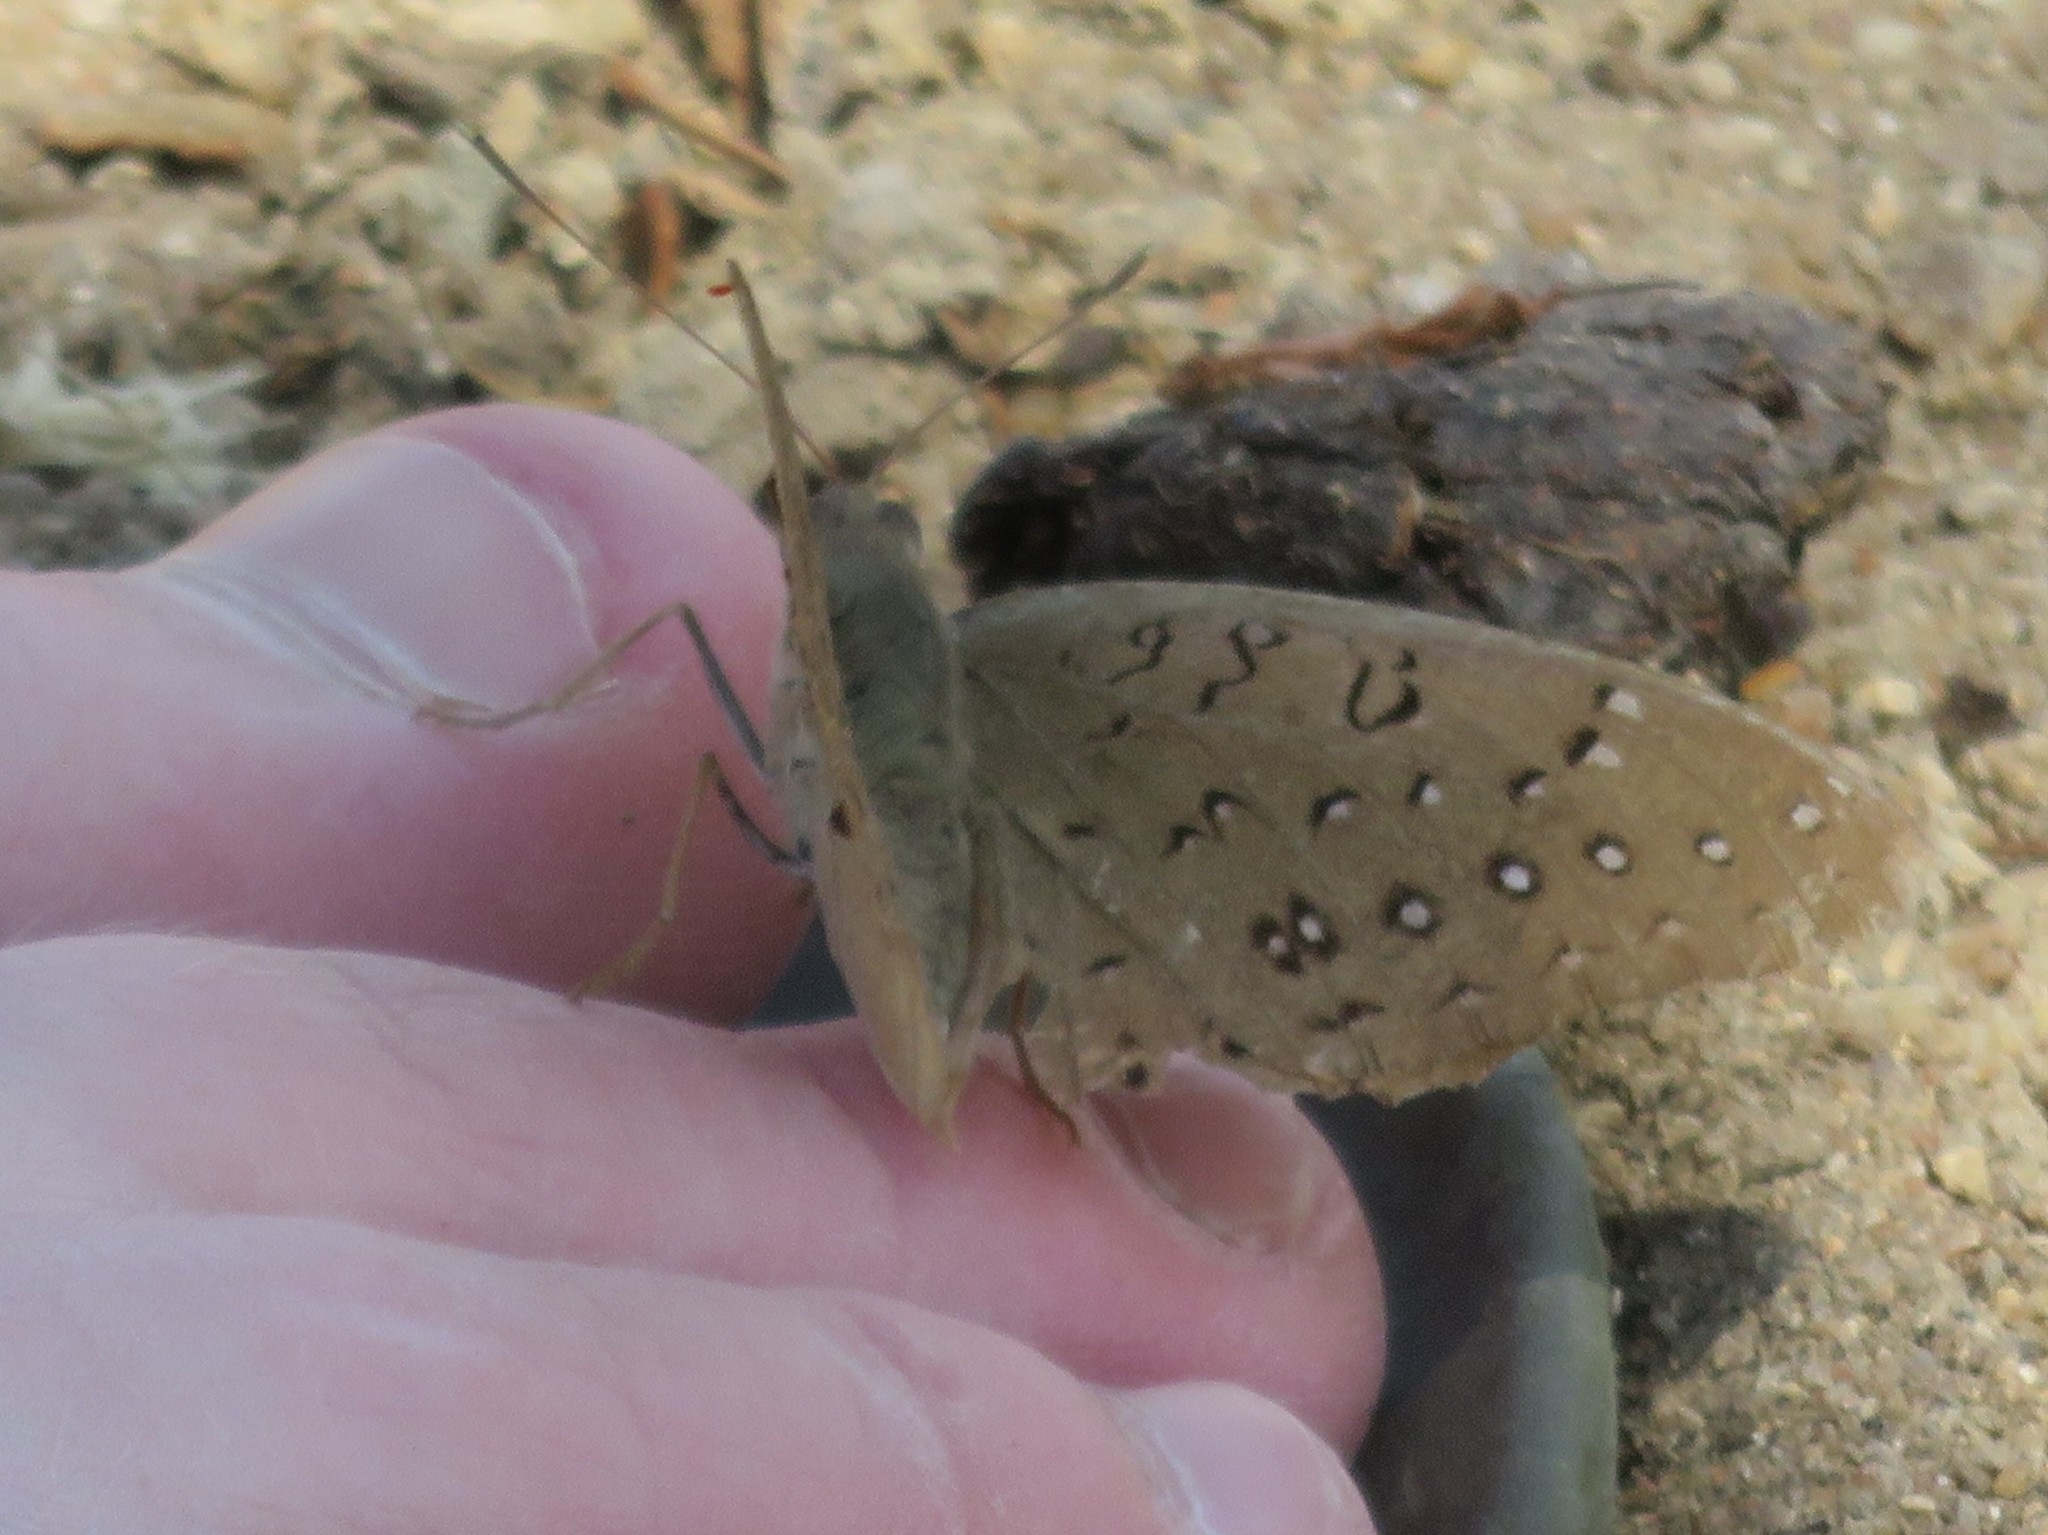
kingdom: Animalia
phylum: Arthropoda
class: Insecta
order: Lepidoptera
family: Nymphalidae
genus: Hamanumida
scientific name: Hamanumida daedalus
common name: Guinea-fowl butterfly
